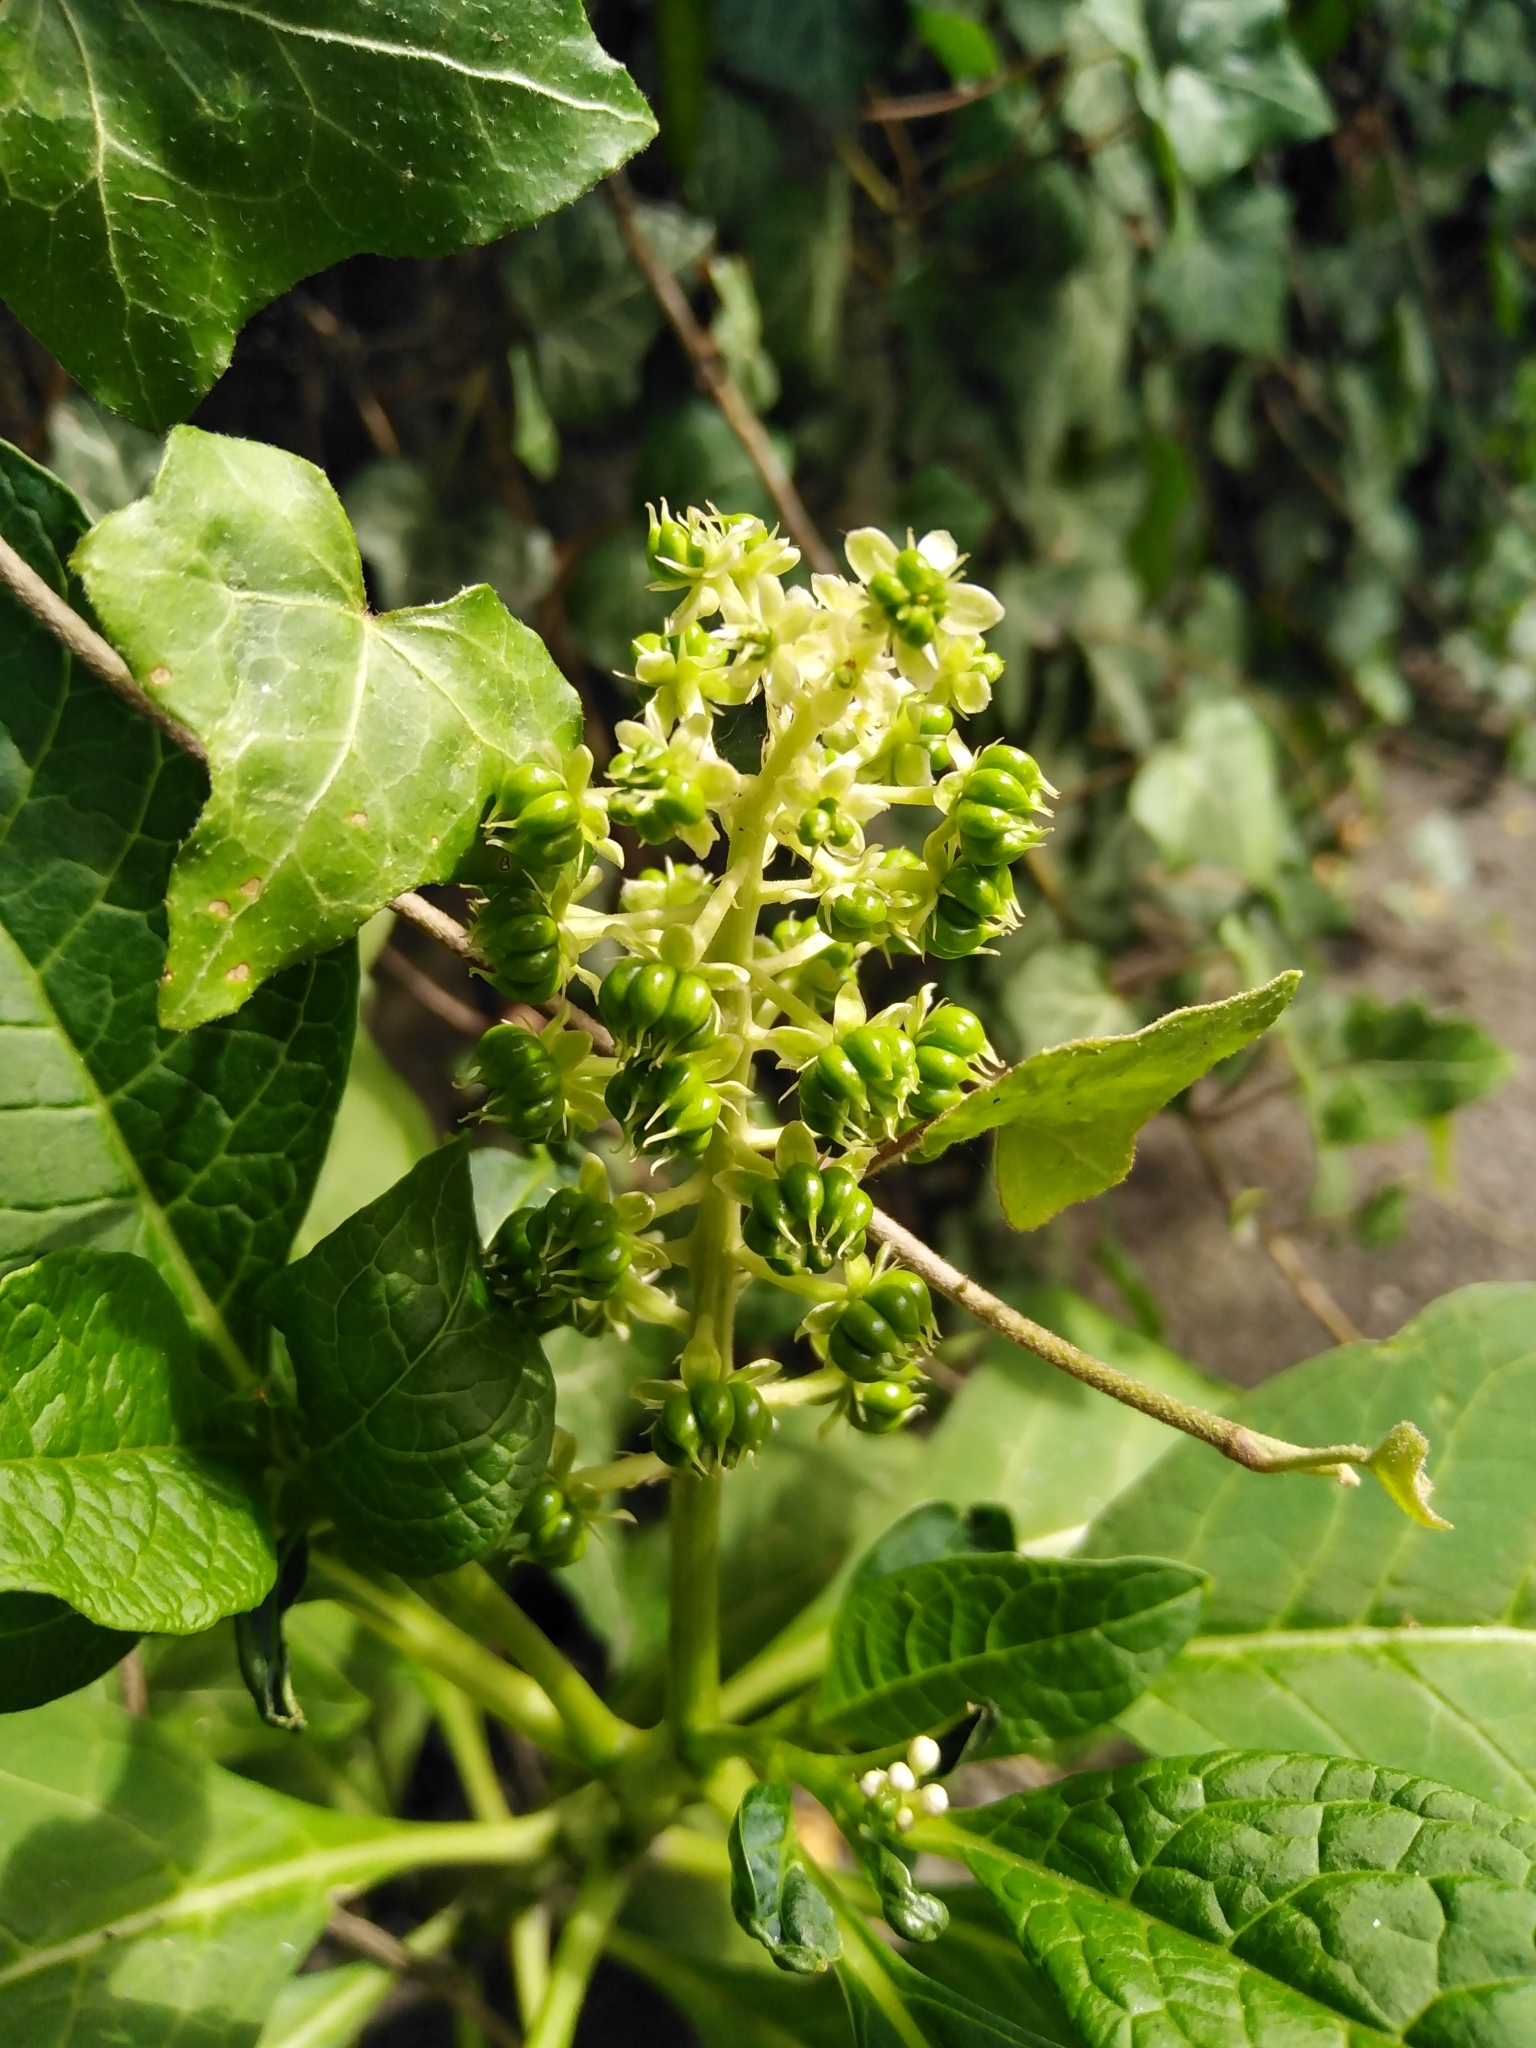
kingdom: Plantae
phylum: Tracheophyta
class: Magnoliopsida
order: Caryophyllales
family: Phytolaccaceae
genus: Phytolacca
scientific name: Phytolacca acinosa
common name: Indian pokeweed
